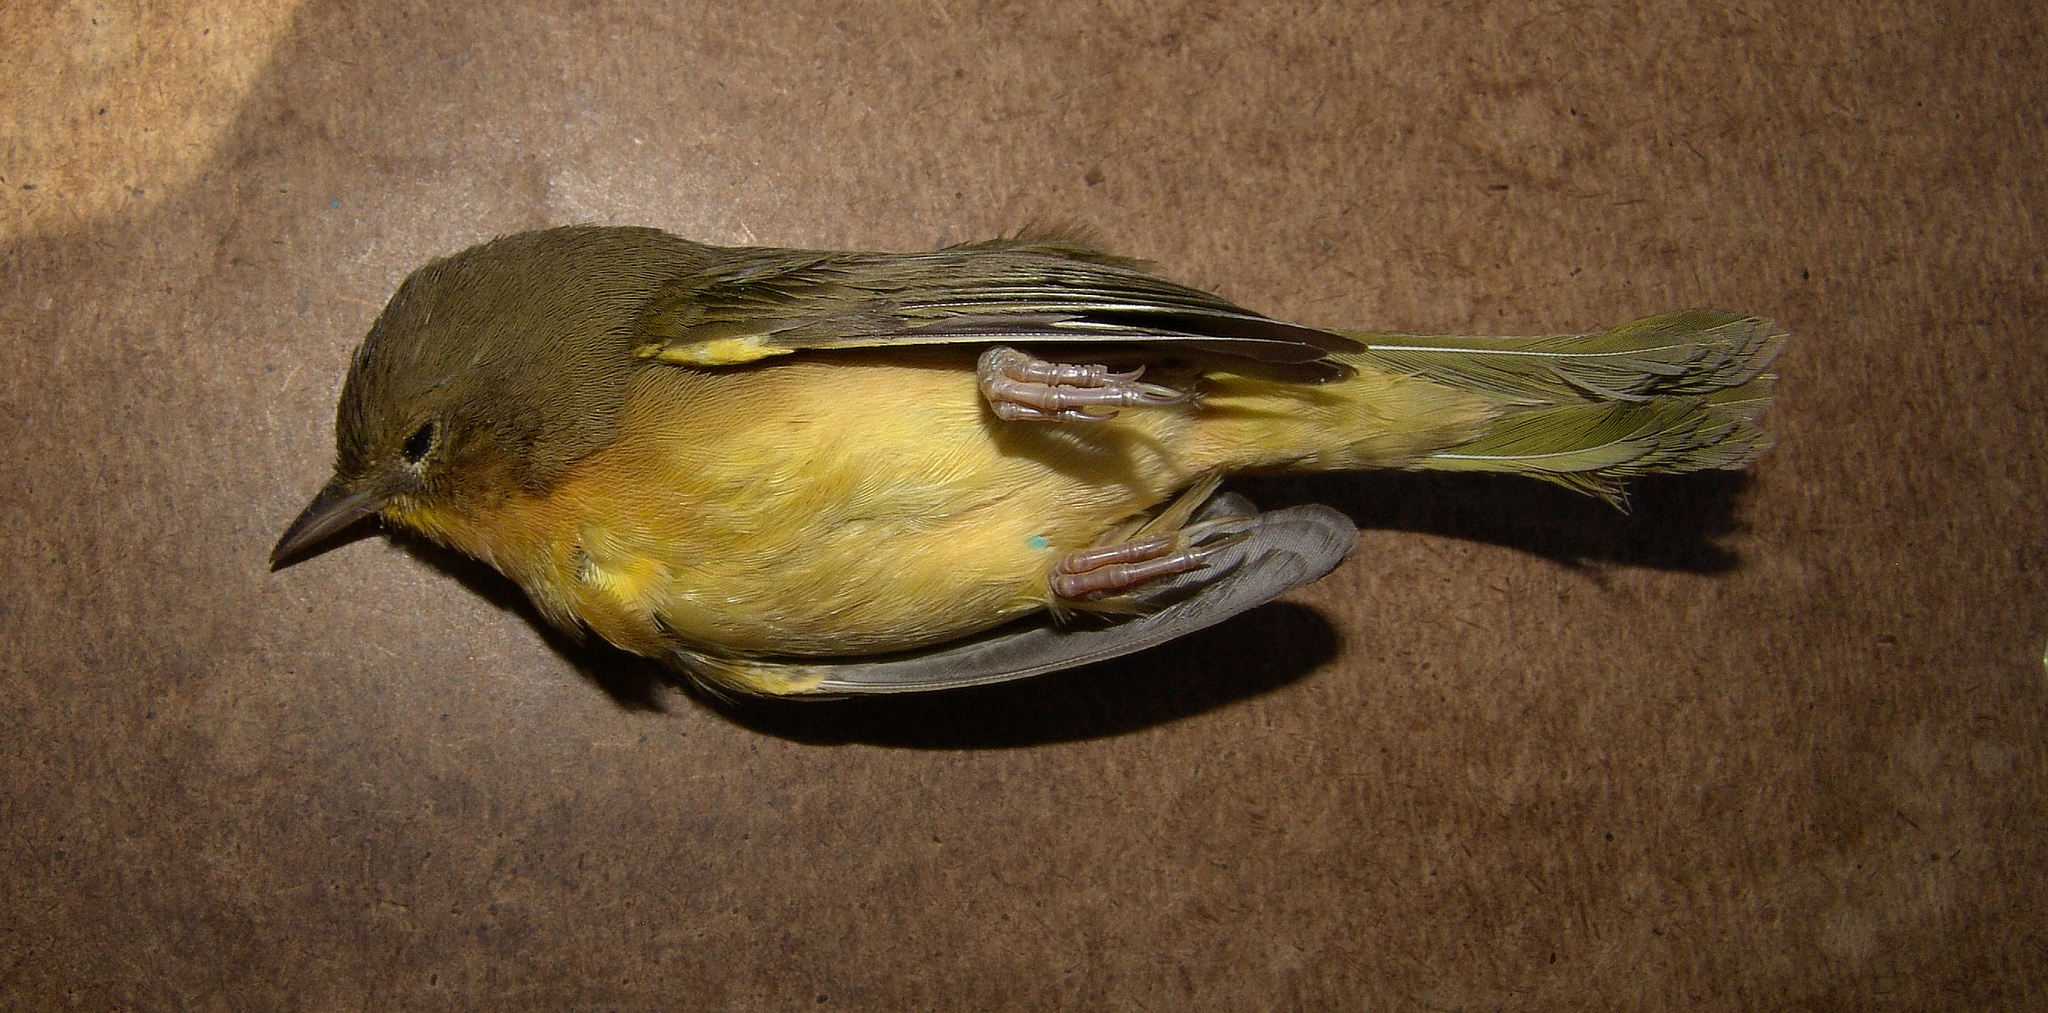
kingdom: Animalia
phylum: Chordata
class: Aves
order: Passeriformes
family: Parulidae
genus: Geothlypis
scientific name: Geothlypis trichas
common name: Common yellowthroat
